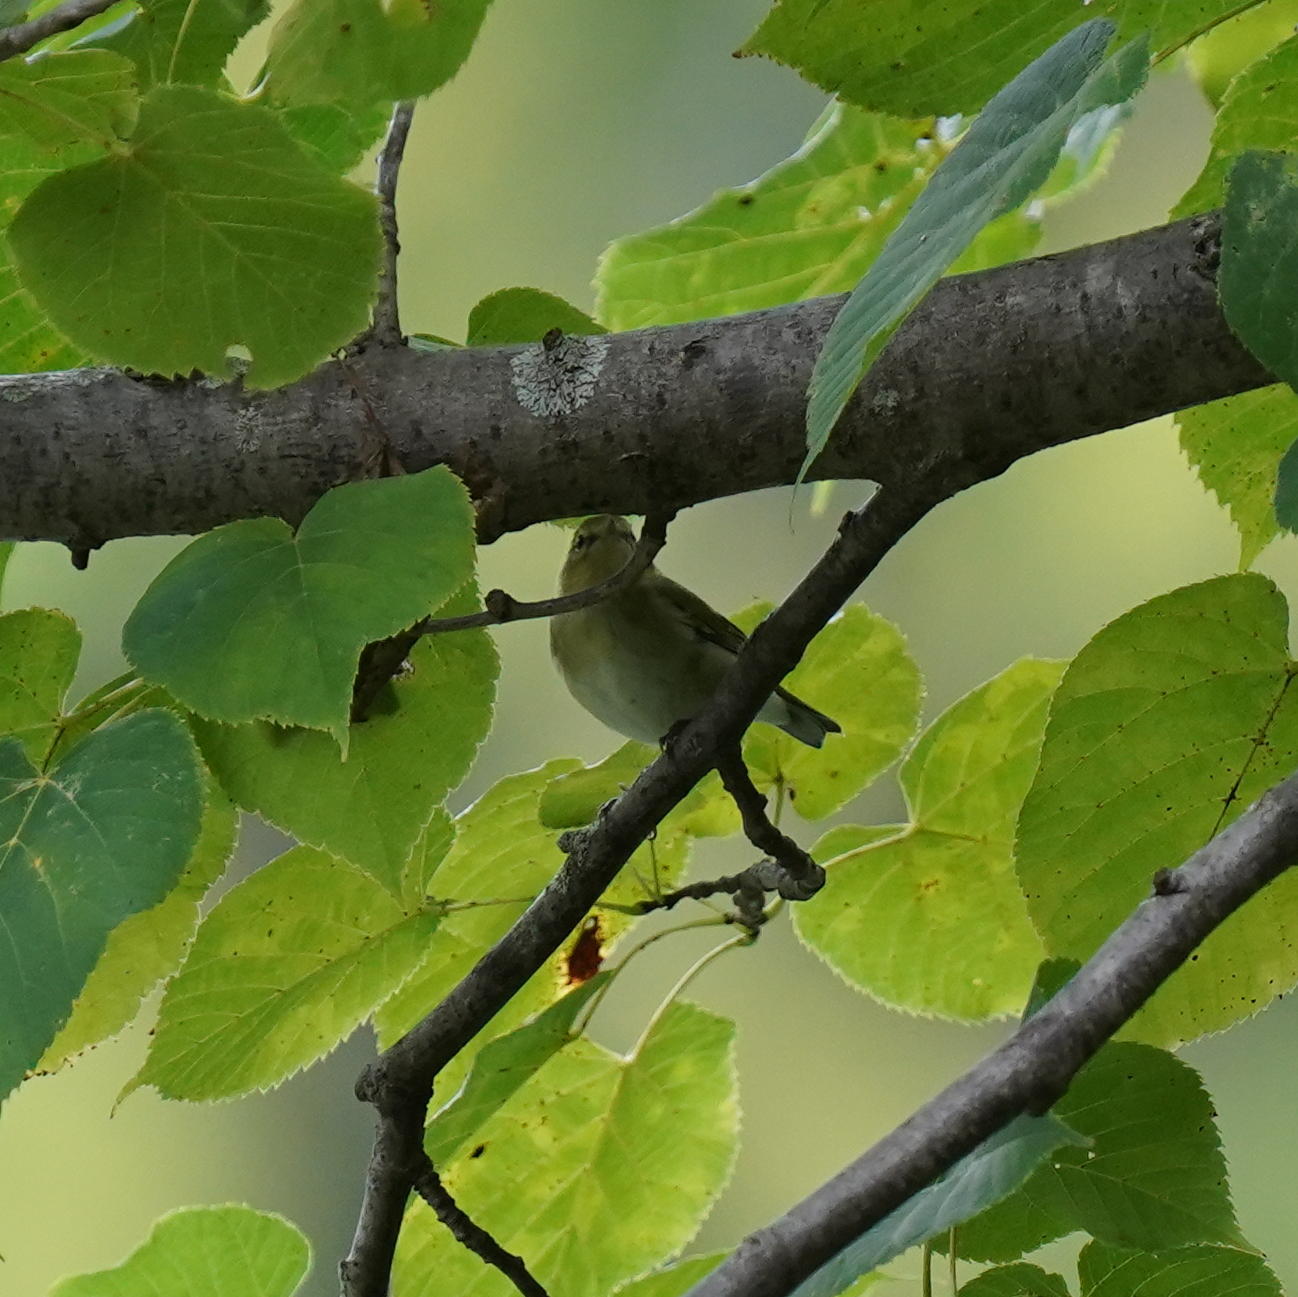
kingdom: Animalia
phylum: Chordata
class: Aves
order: Passeriformes
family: Parulidae
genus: Leiothlypis
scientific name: Leiothlypis peregrina
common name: Tennessee warbler
